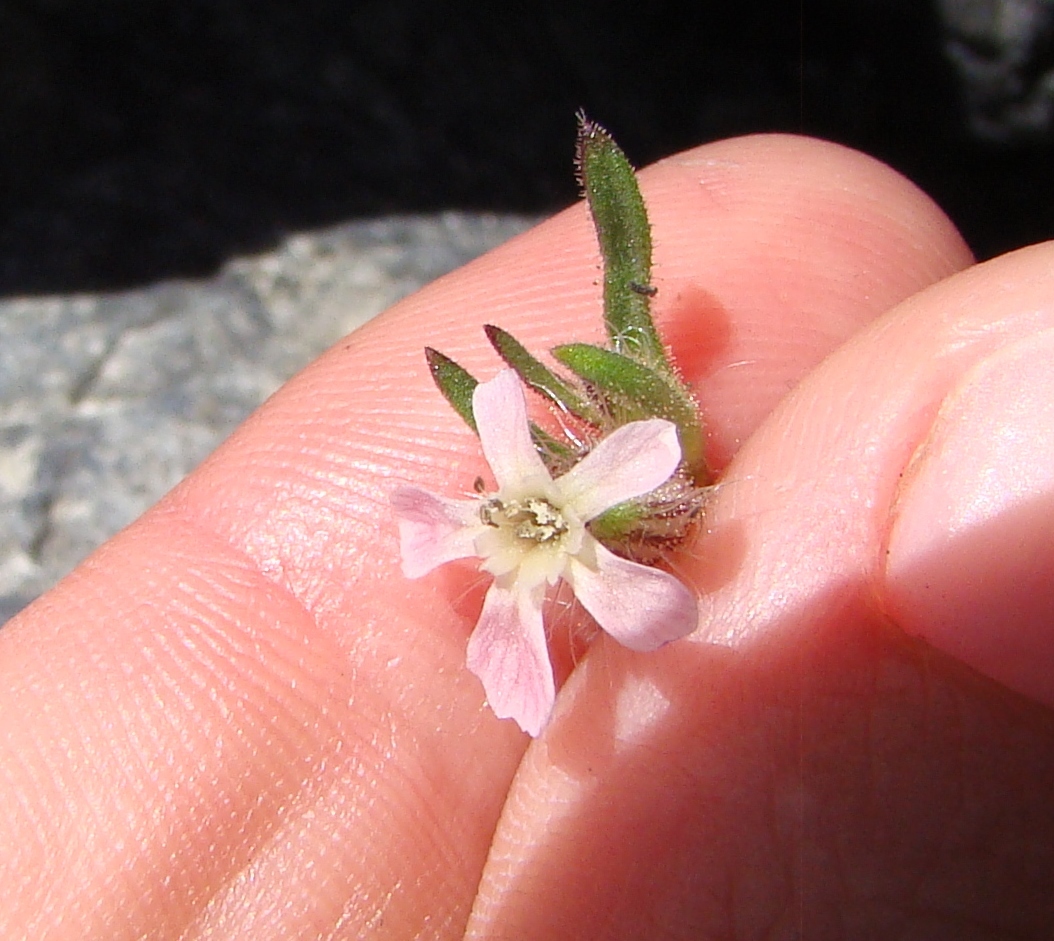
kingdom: Plantae
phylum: Tracheophyta
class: Magnoliopsida
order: Caryophyllales
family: Caryophyllaceae
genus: Silene
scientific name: Silene gallica
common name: Small-flowered catchfly
